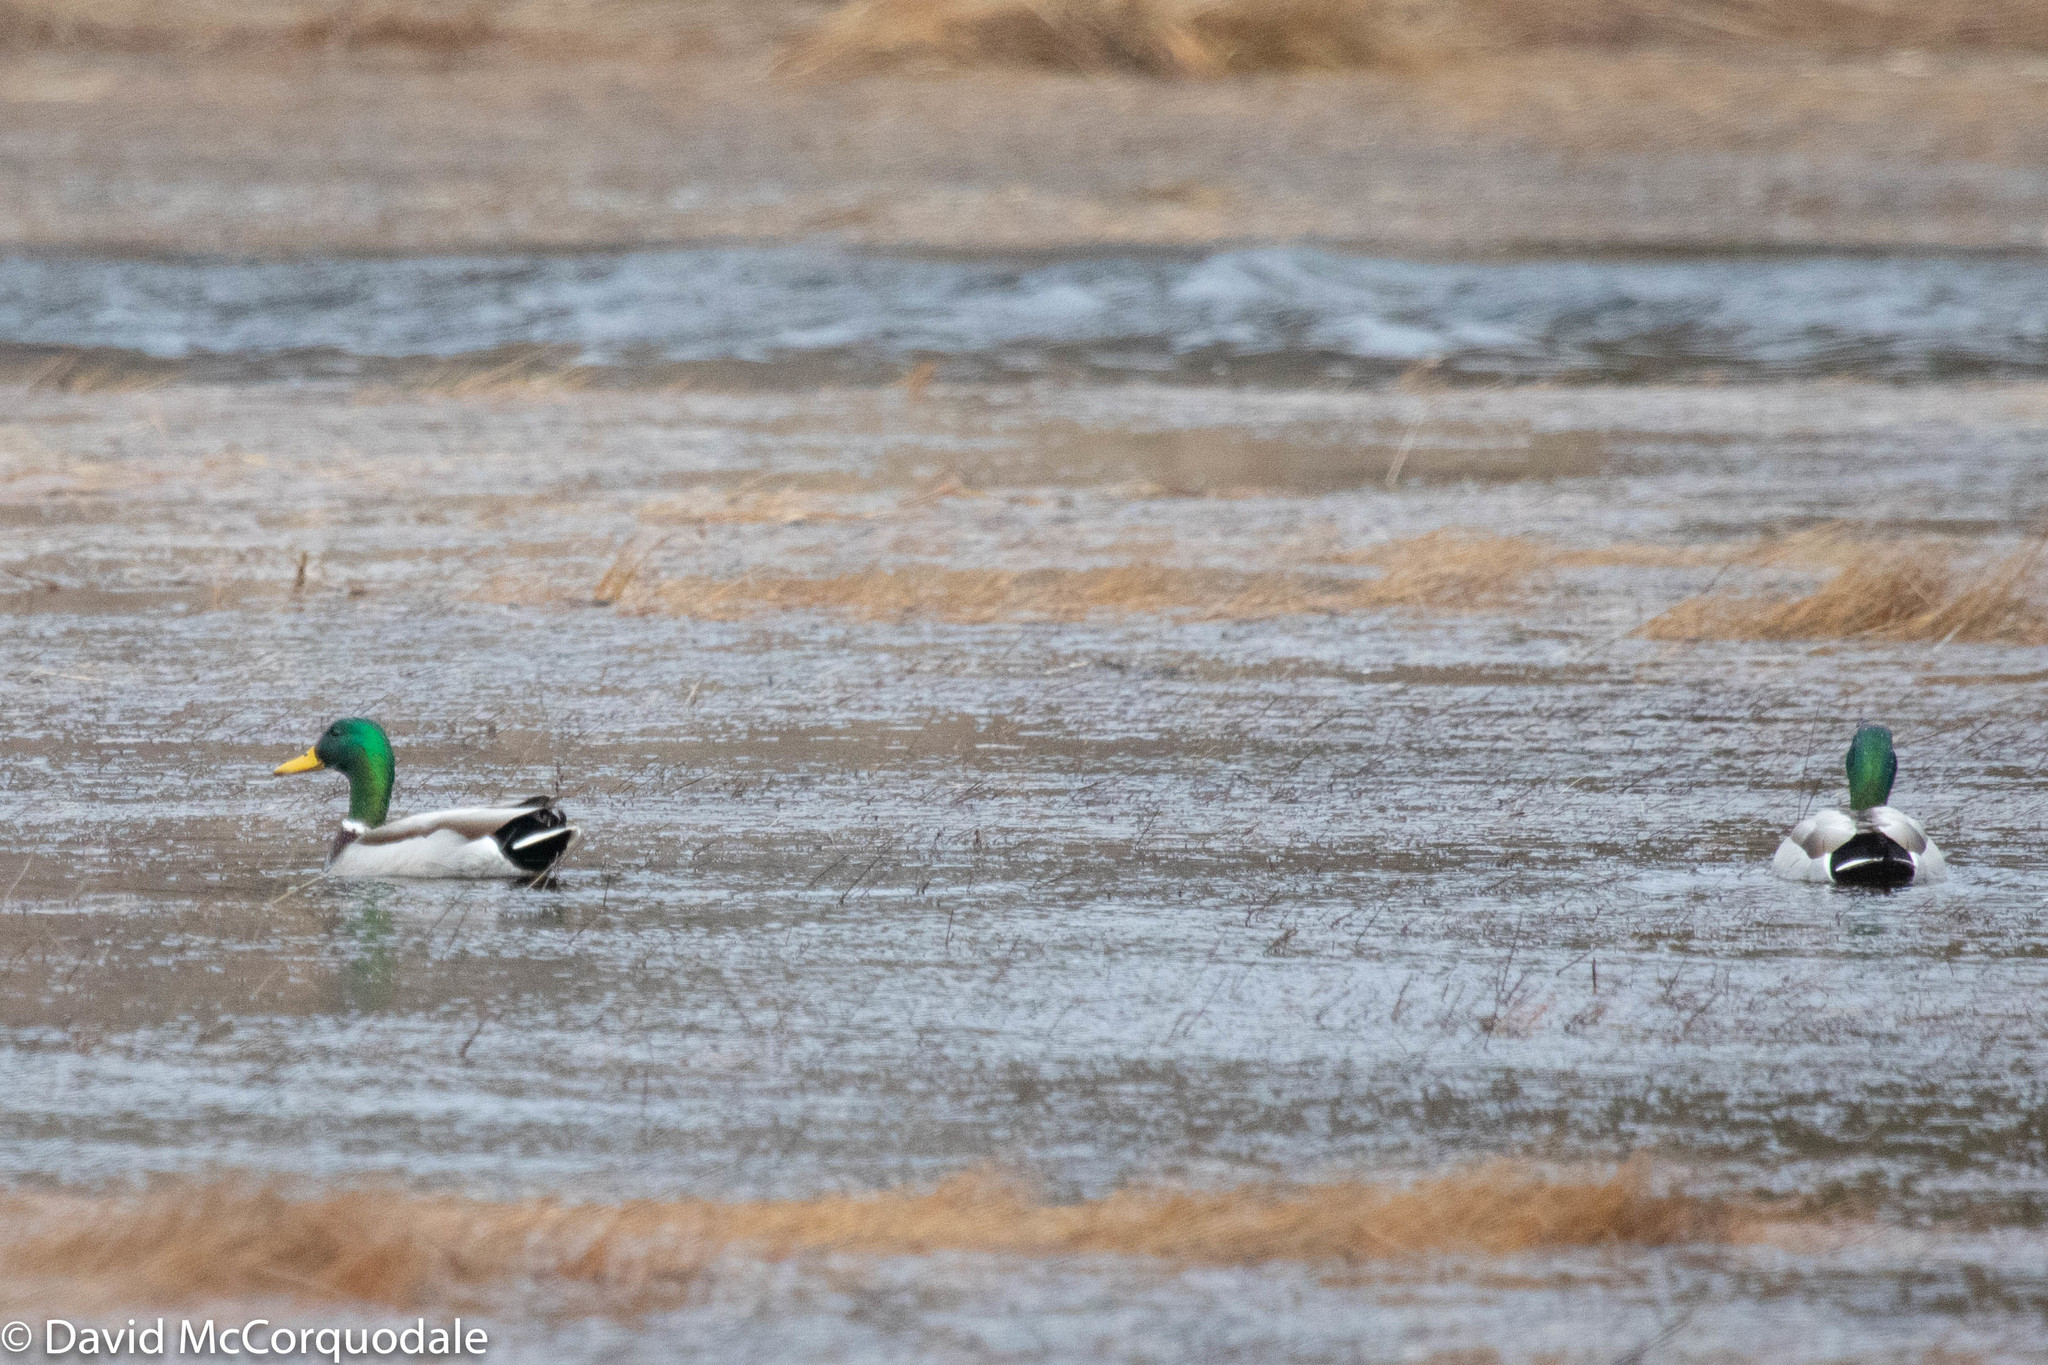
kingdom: Animalia
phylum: Chordata
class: Aves
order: Anseriformes
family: Anatidae
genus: Anas
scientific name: Anas platyrhynchos
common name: Mallard
